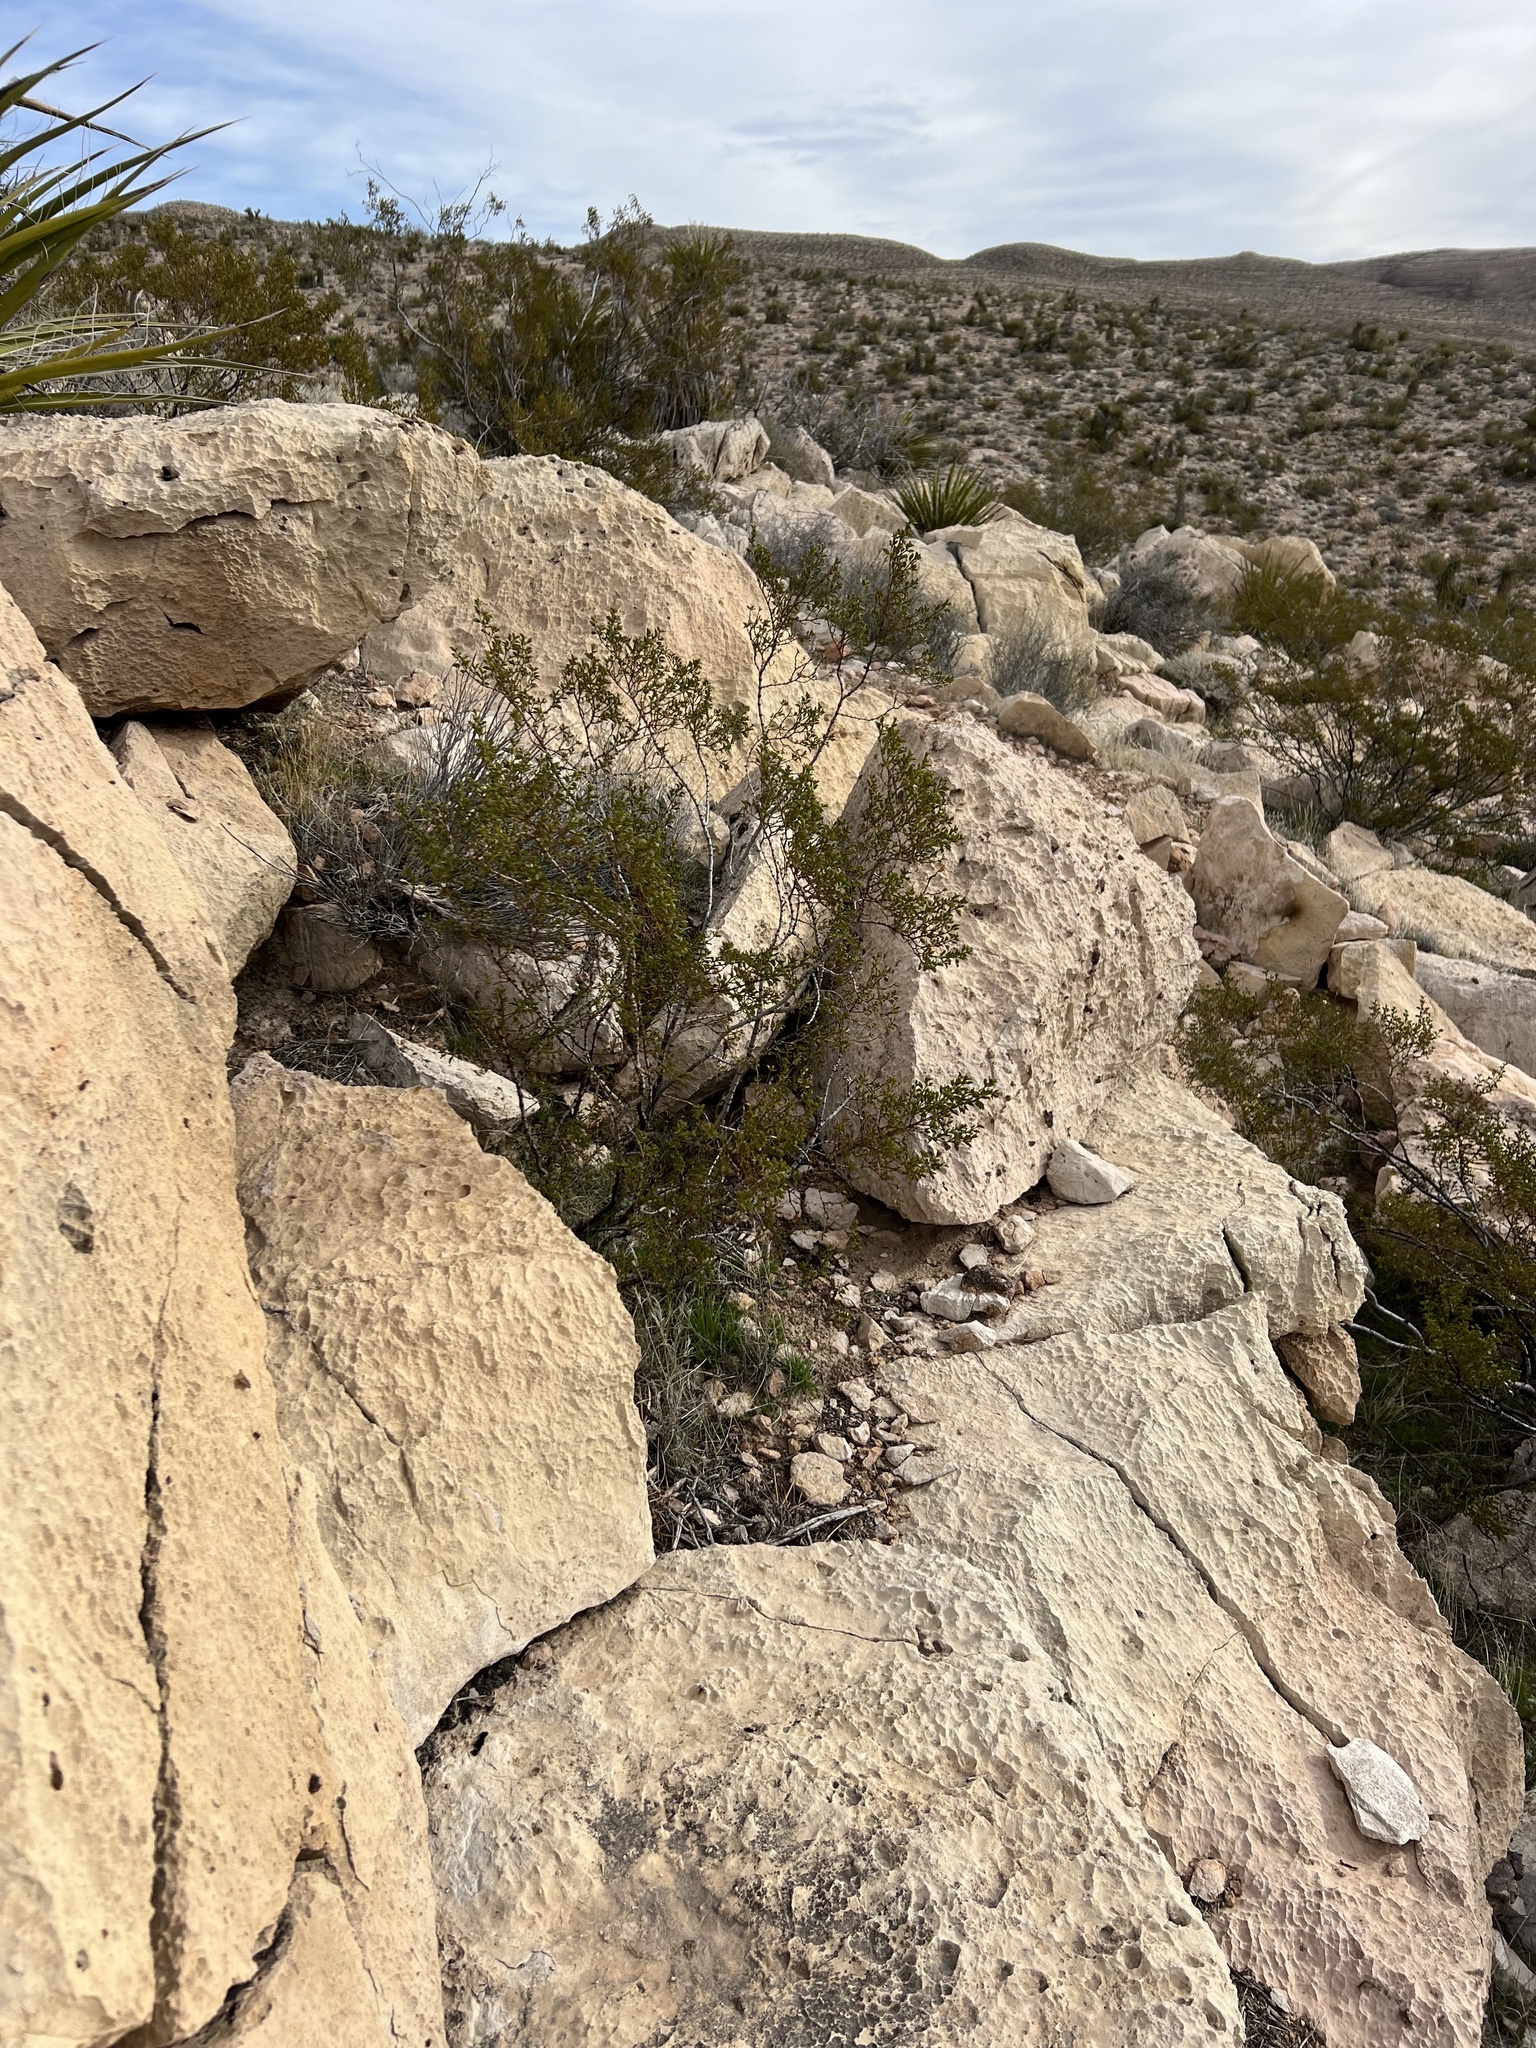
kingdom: Plantae
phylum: Tracheophyta
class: Magnoliopsida
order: Zygophyllales
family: Zygophyllaceae
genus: Larrea
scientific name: Larrea tridentata
